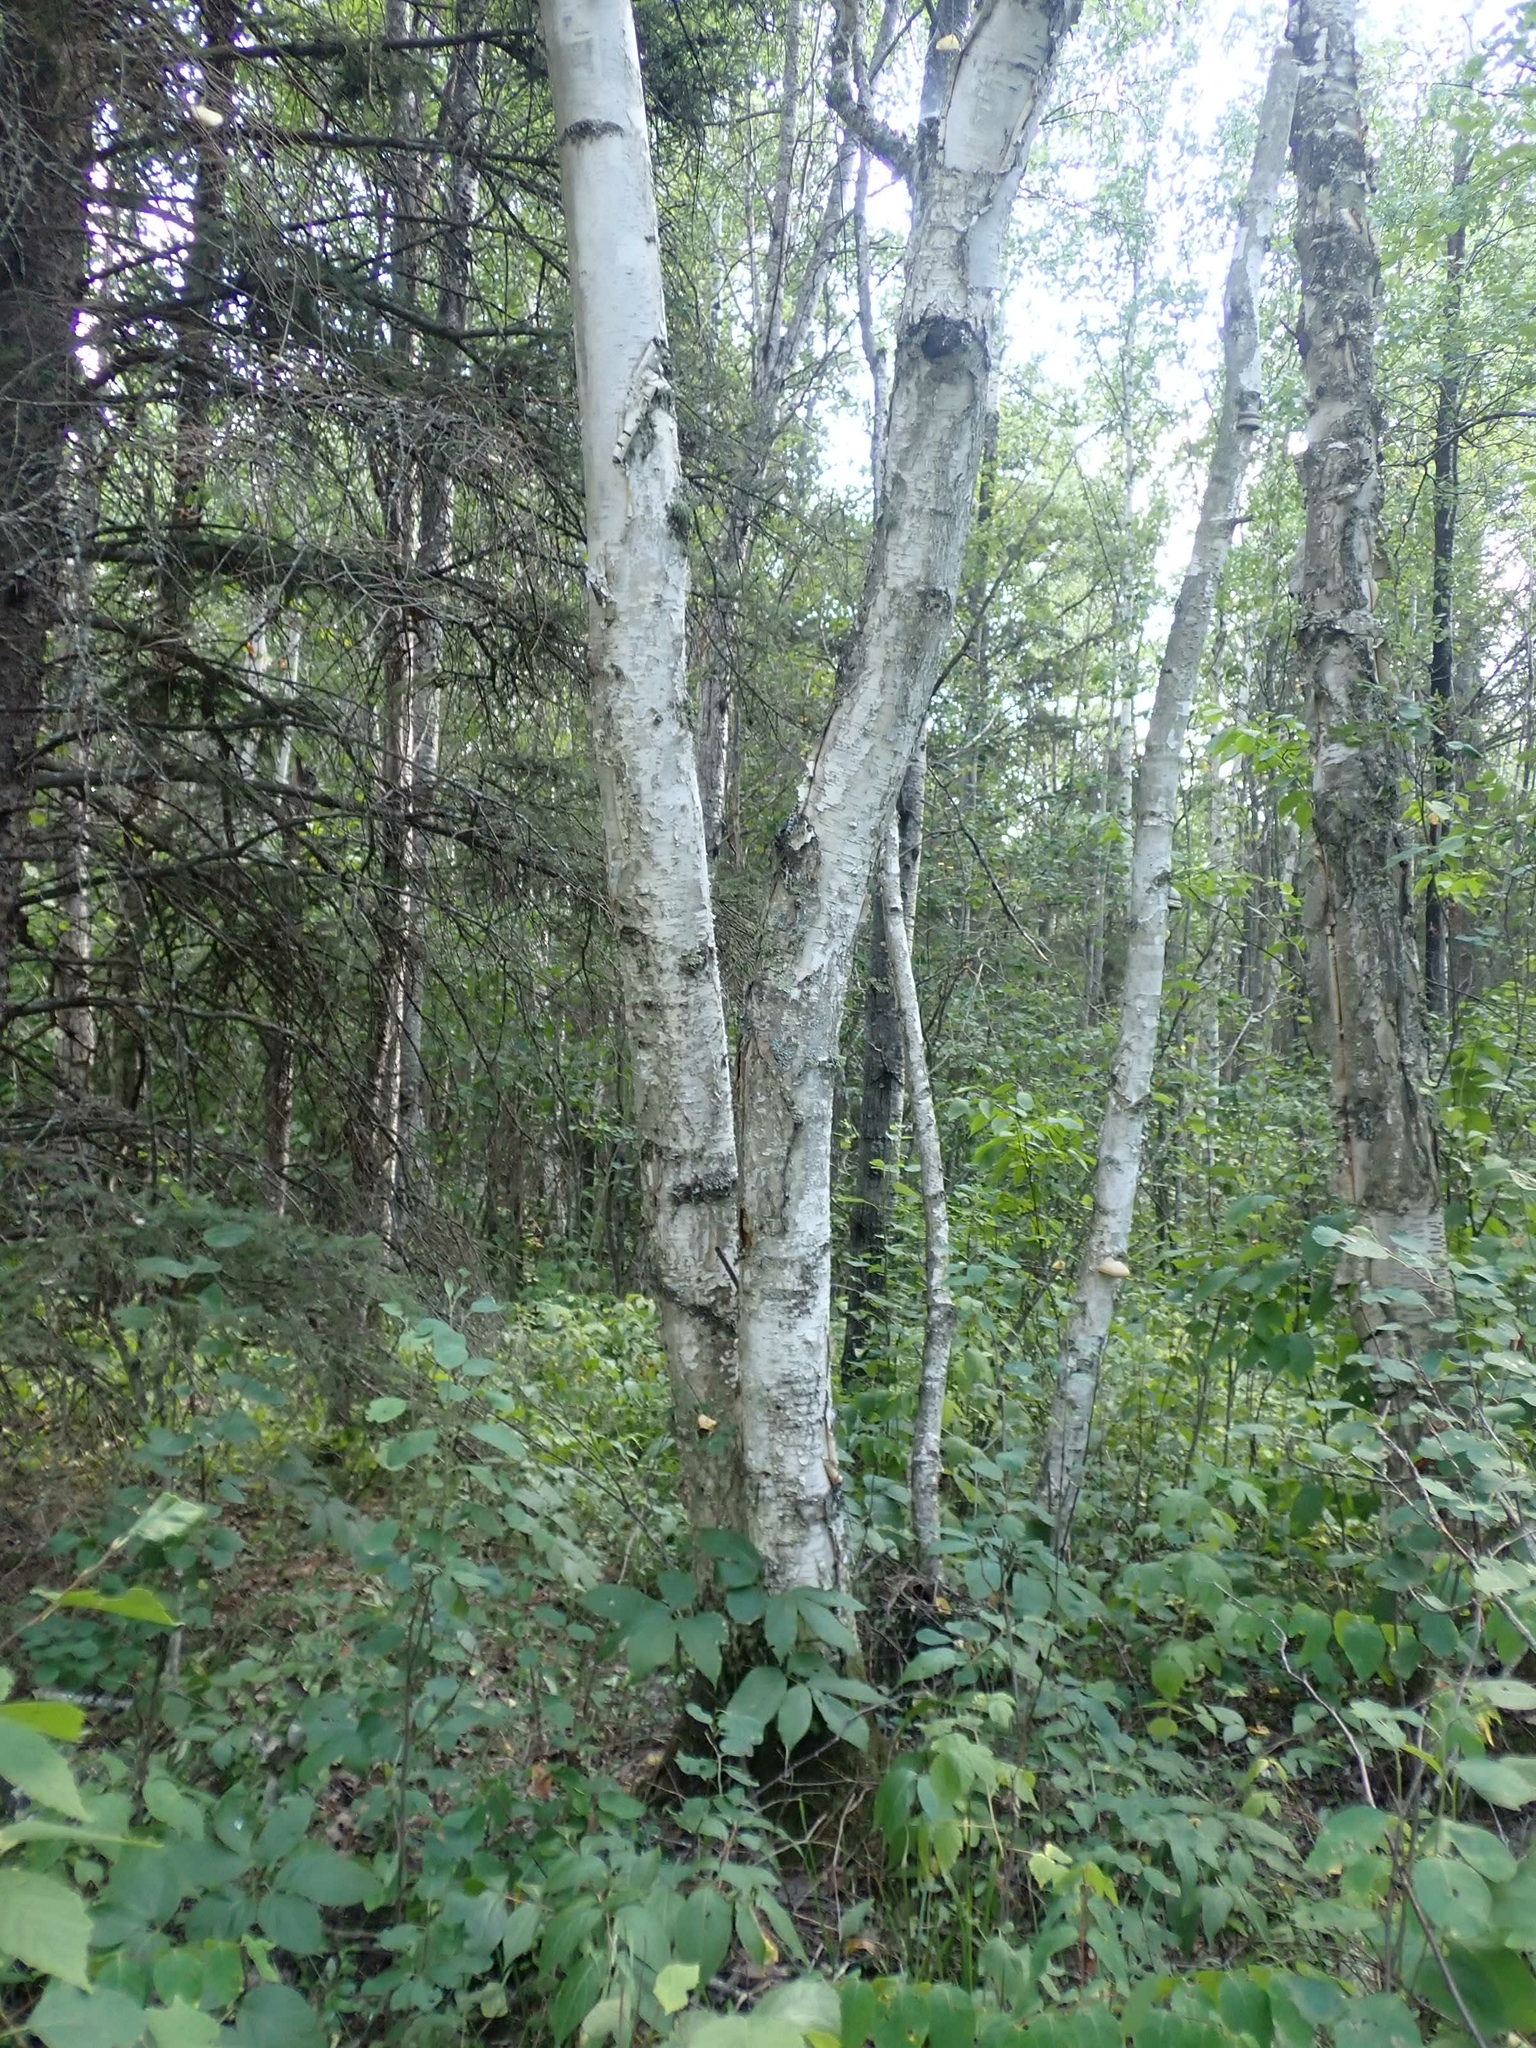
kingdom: Plantae
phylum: Tracheophyta
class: Magnoliopsida
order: Fagales
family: Betulaceae
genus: Betula
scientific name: Betula papyrifera
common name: Paper birch
